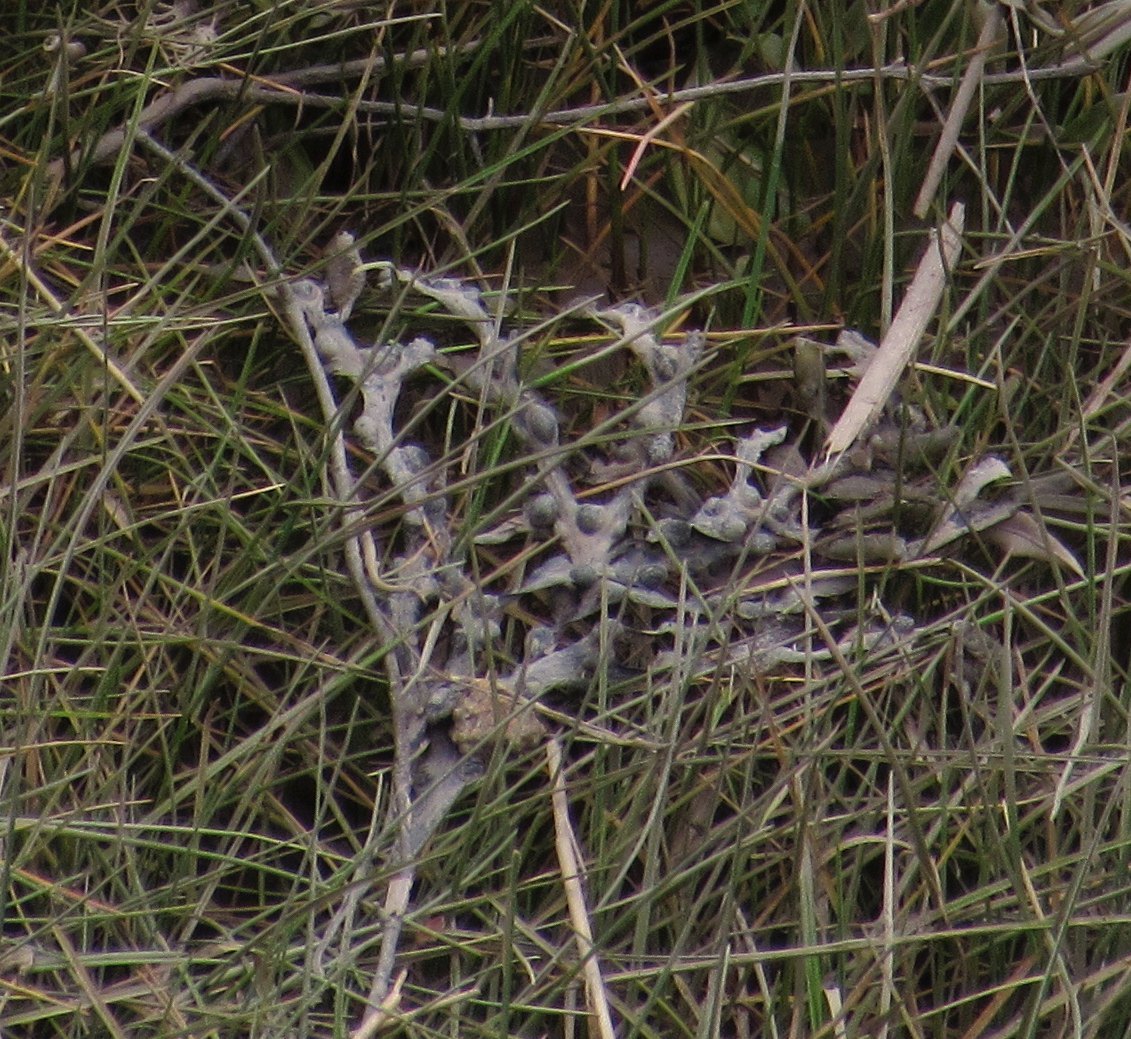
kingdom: Chromista
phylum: Ochrophyta
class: Phaeophyceae
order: Fucales
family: Fucaceae
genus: Fucus
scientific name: Fucus vesiculosus
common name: Bladder wrack
